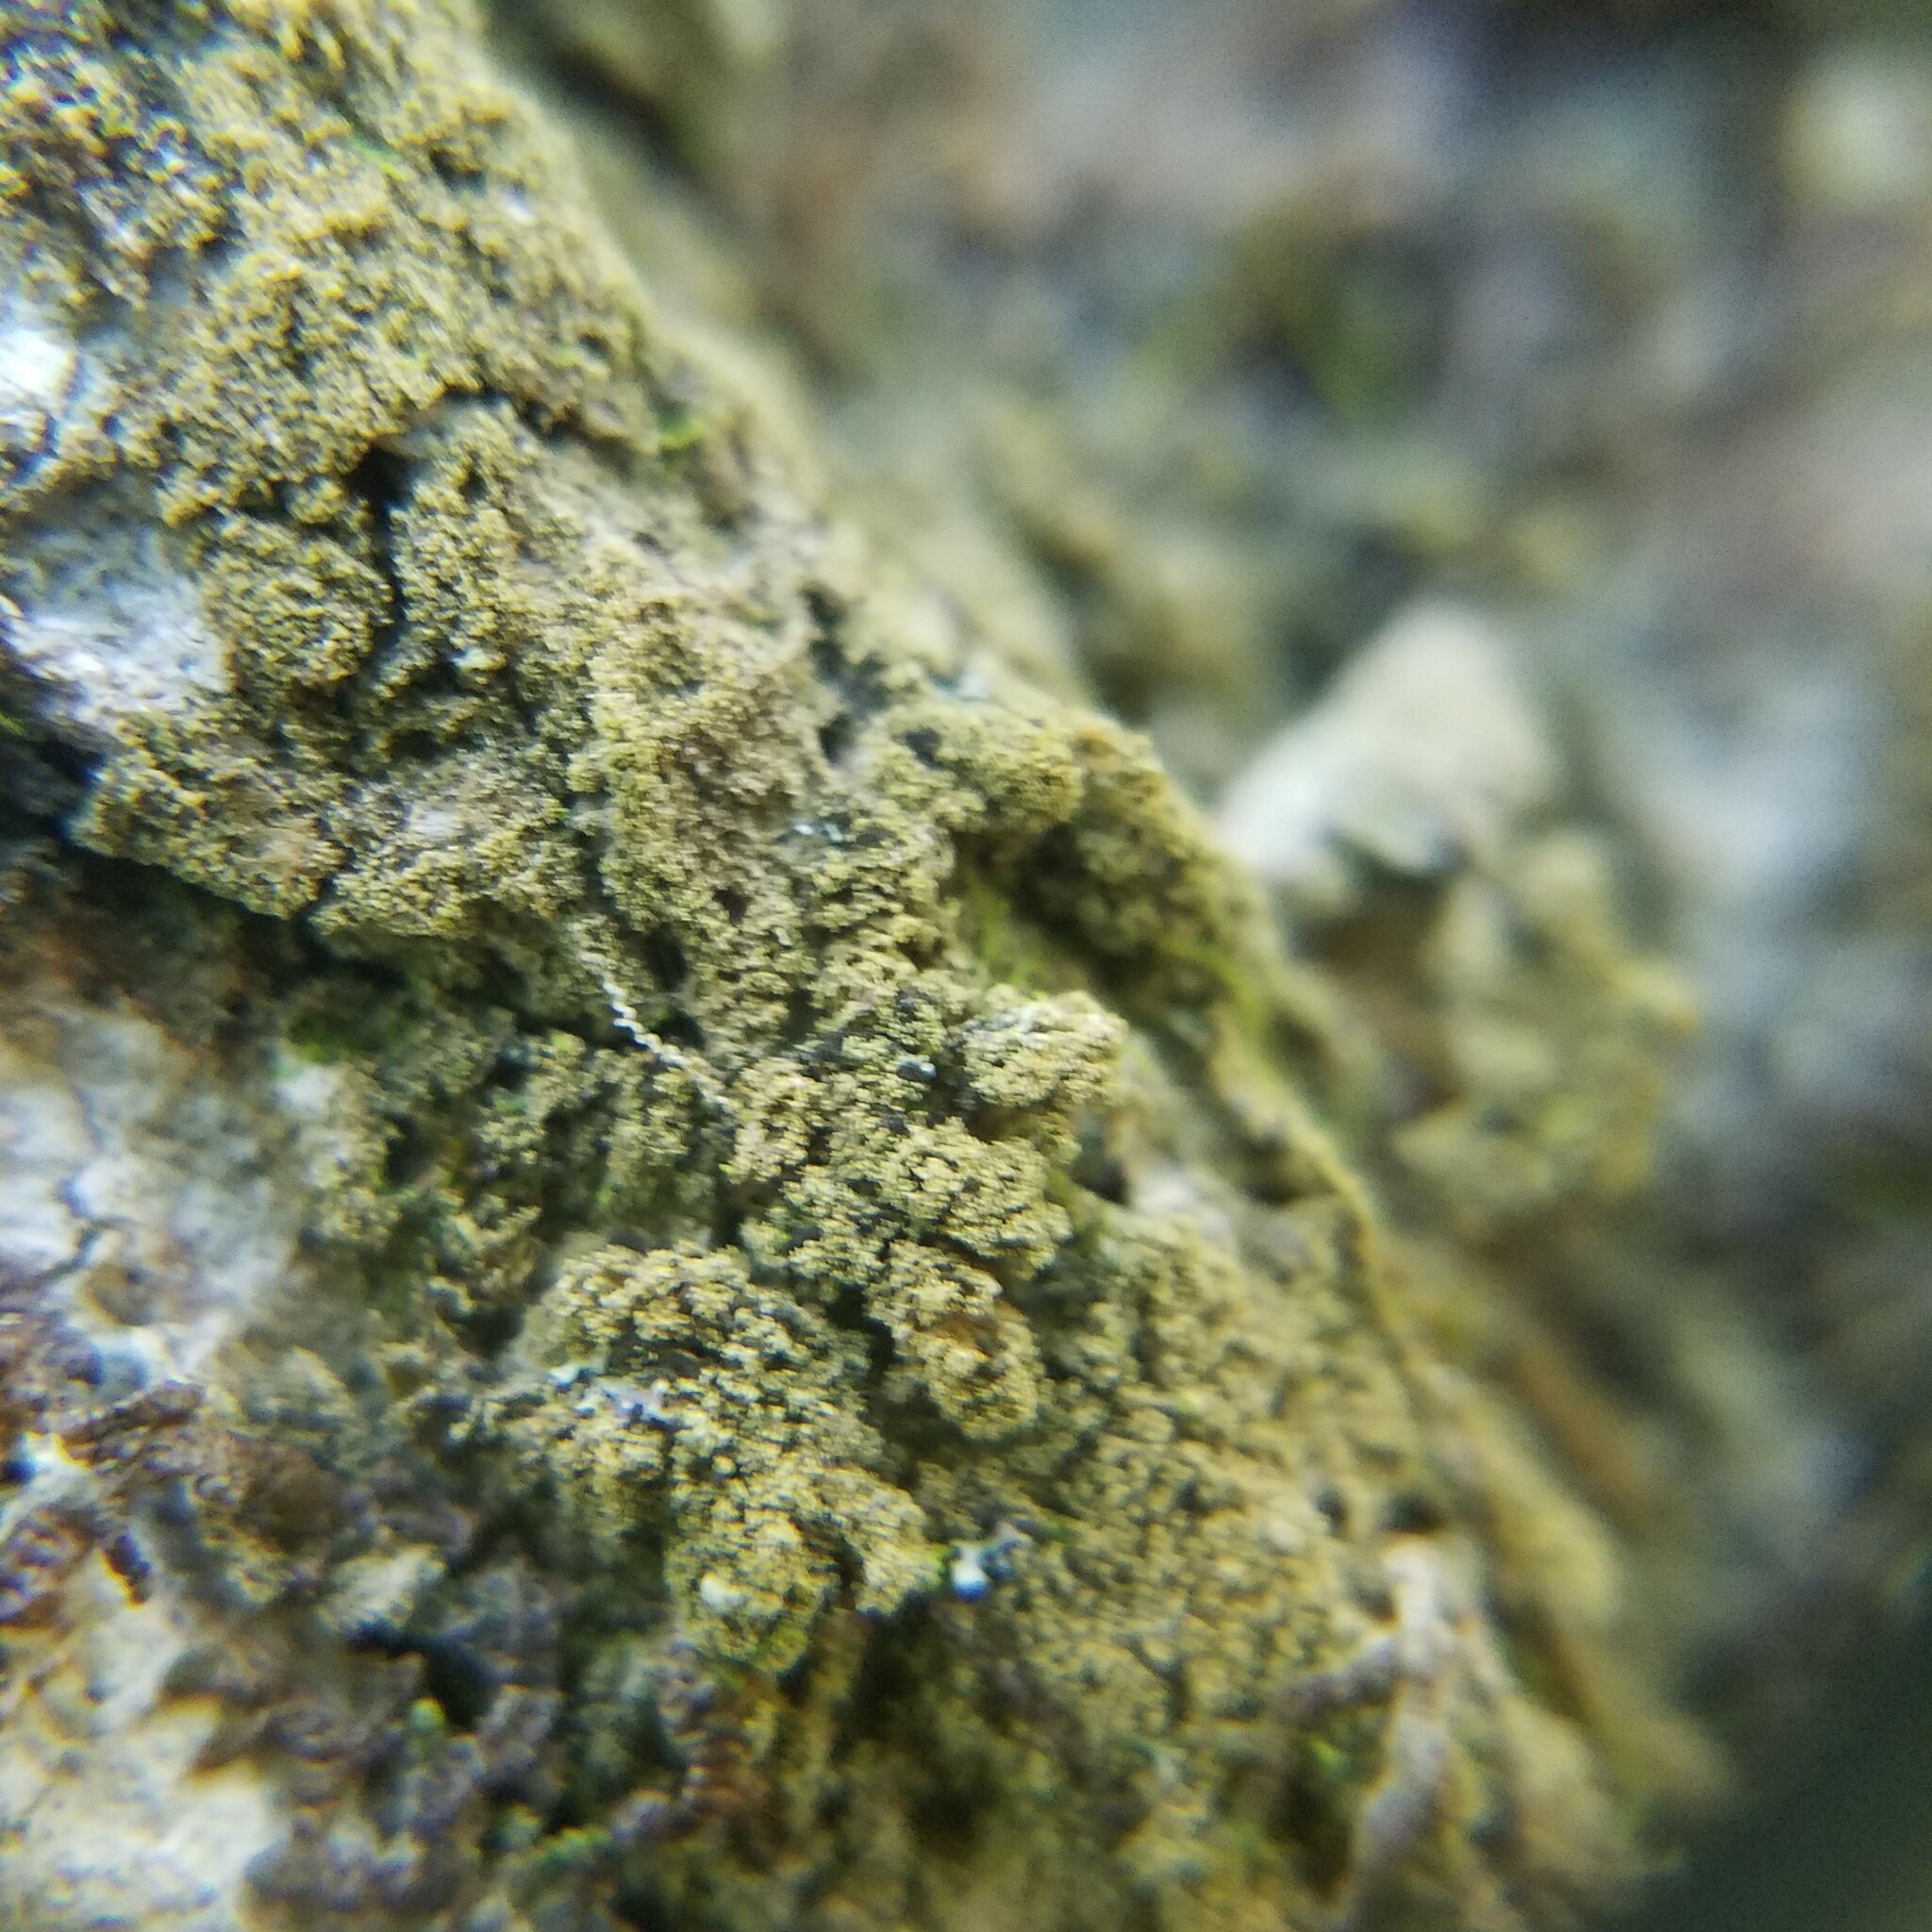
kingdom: Fungi
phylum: Ascomycota
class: Lecanoromycetes
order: Ostropales
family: Porinaceae
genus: Porina
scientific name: Porina scabrida
